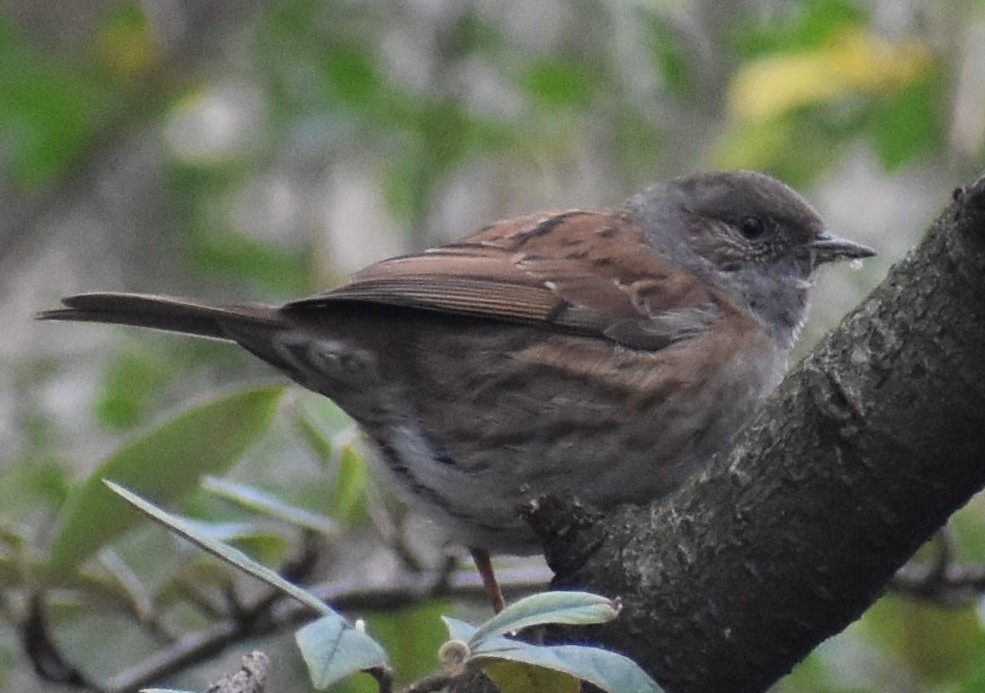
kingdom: Animalia
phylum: Chordata
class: Aves
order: Passeriformes
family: Prunellidae
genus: Prunella
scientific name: Prunella modularis
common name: Dunnock
